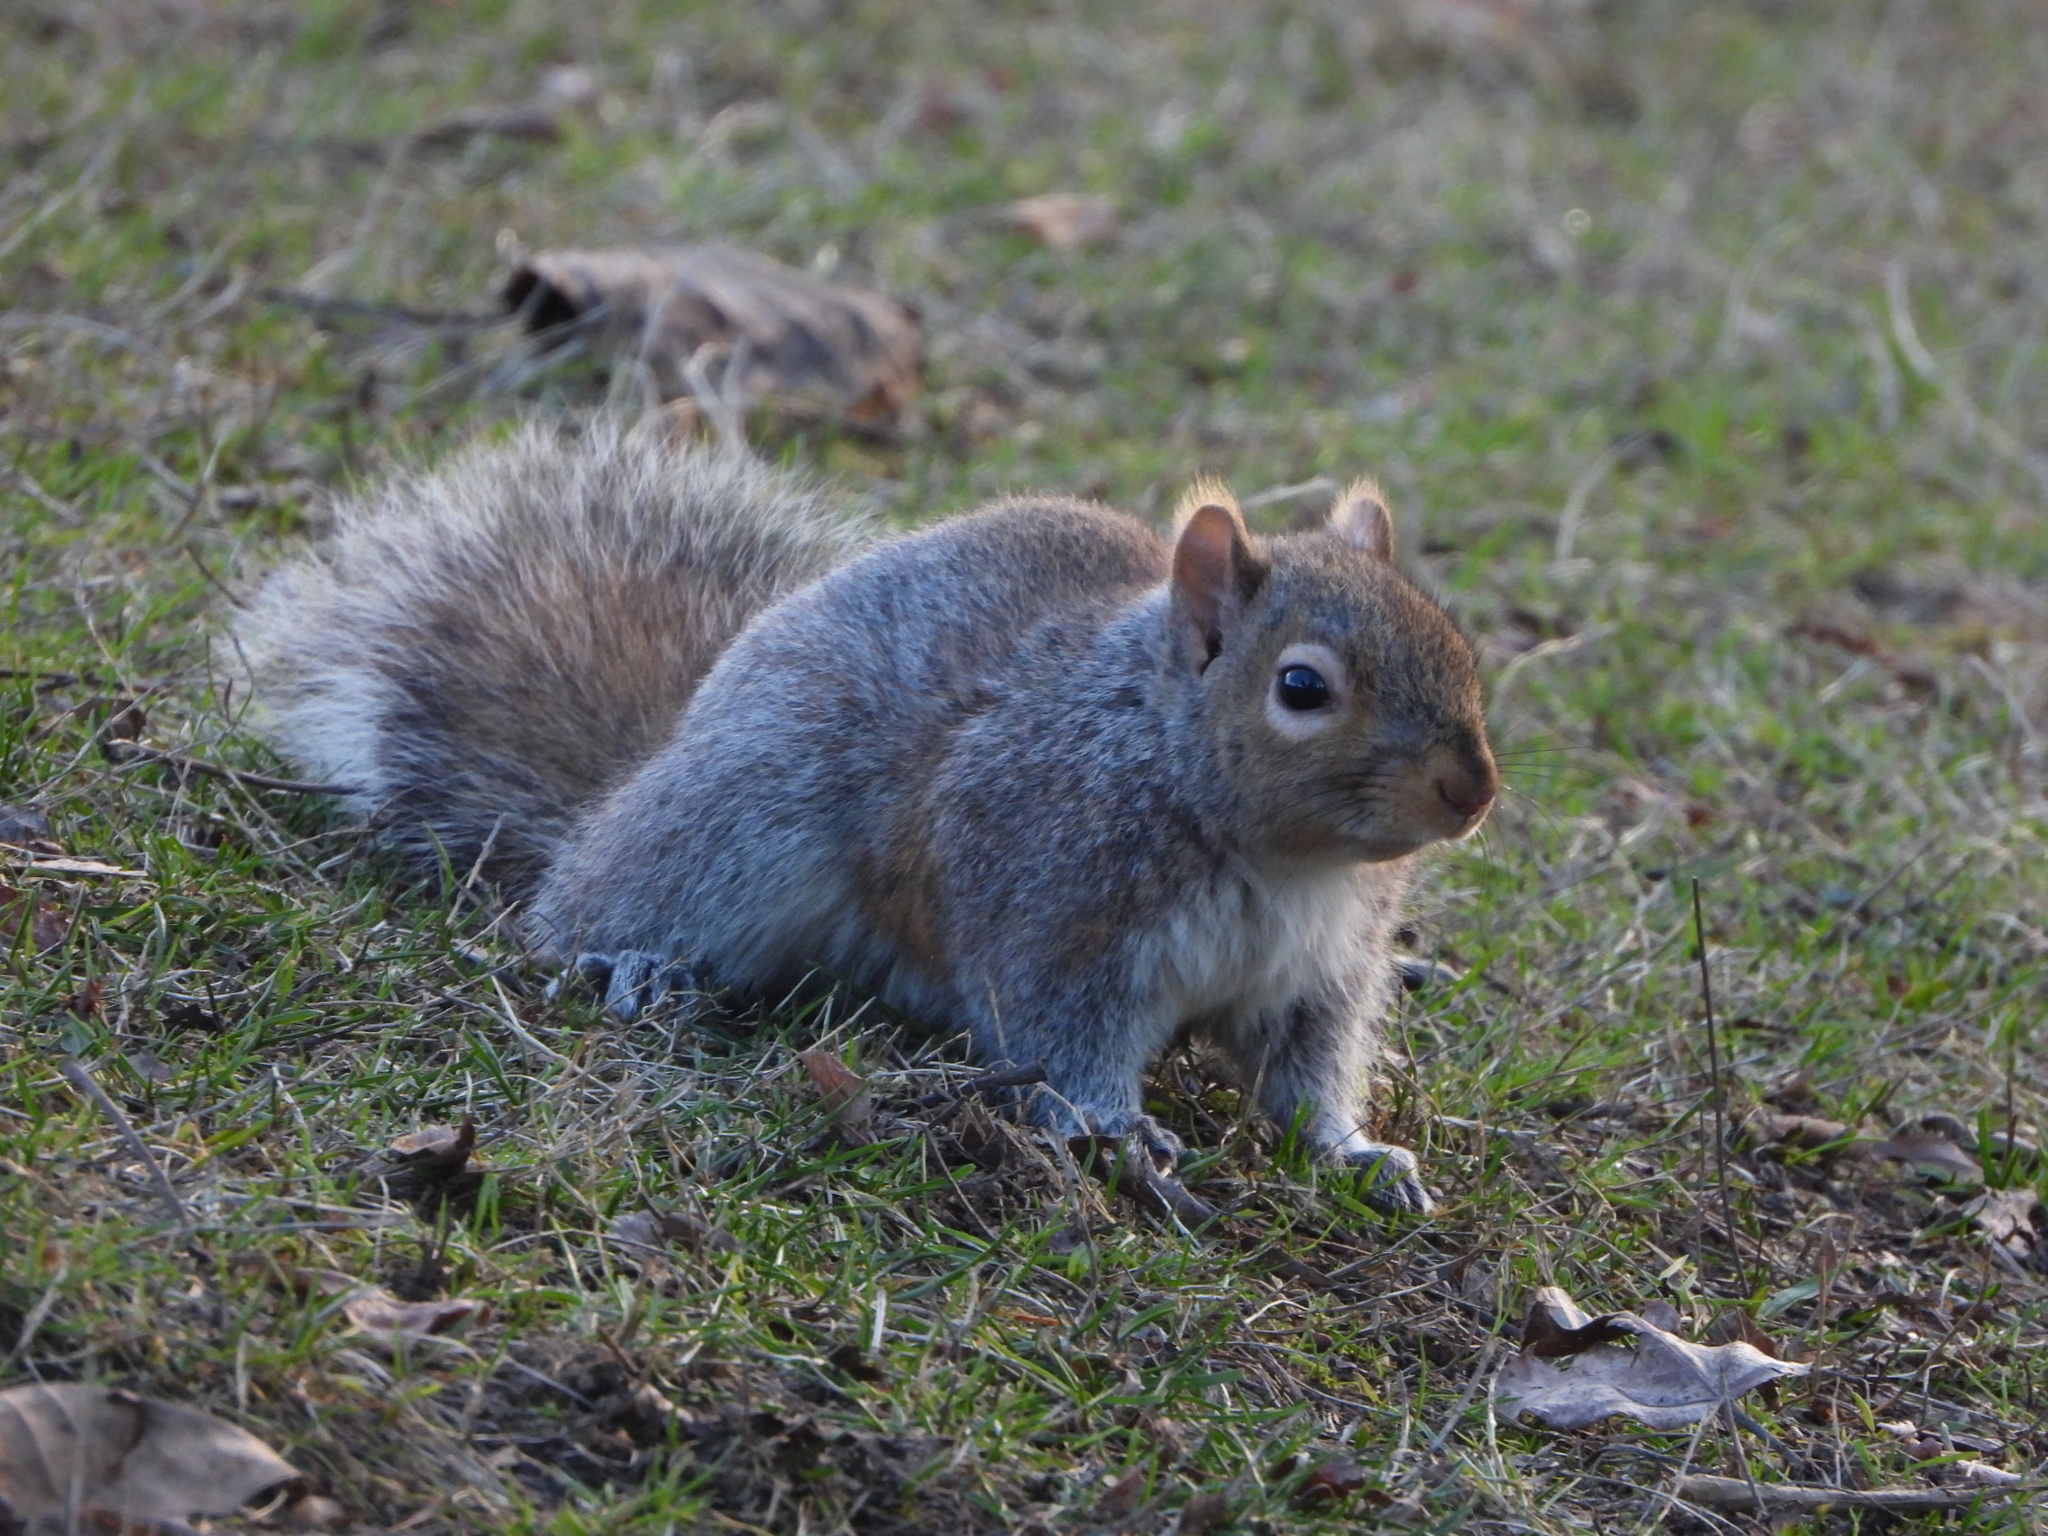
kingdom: Animalia
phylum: Chordata
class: Mammalia
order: Rodentia
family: Sciuridae
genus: Sciurus
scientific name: Sciurus carolinensis
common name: Eastern gray squirrel
